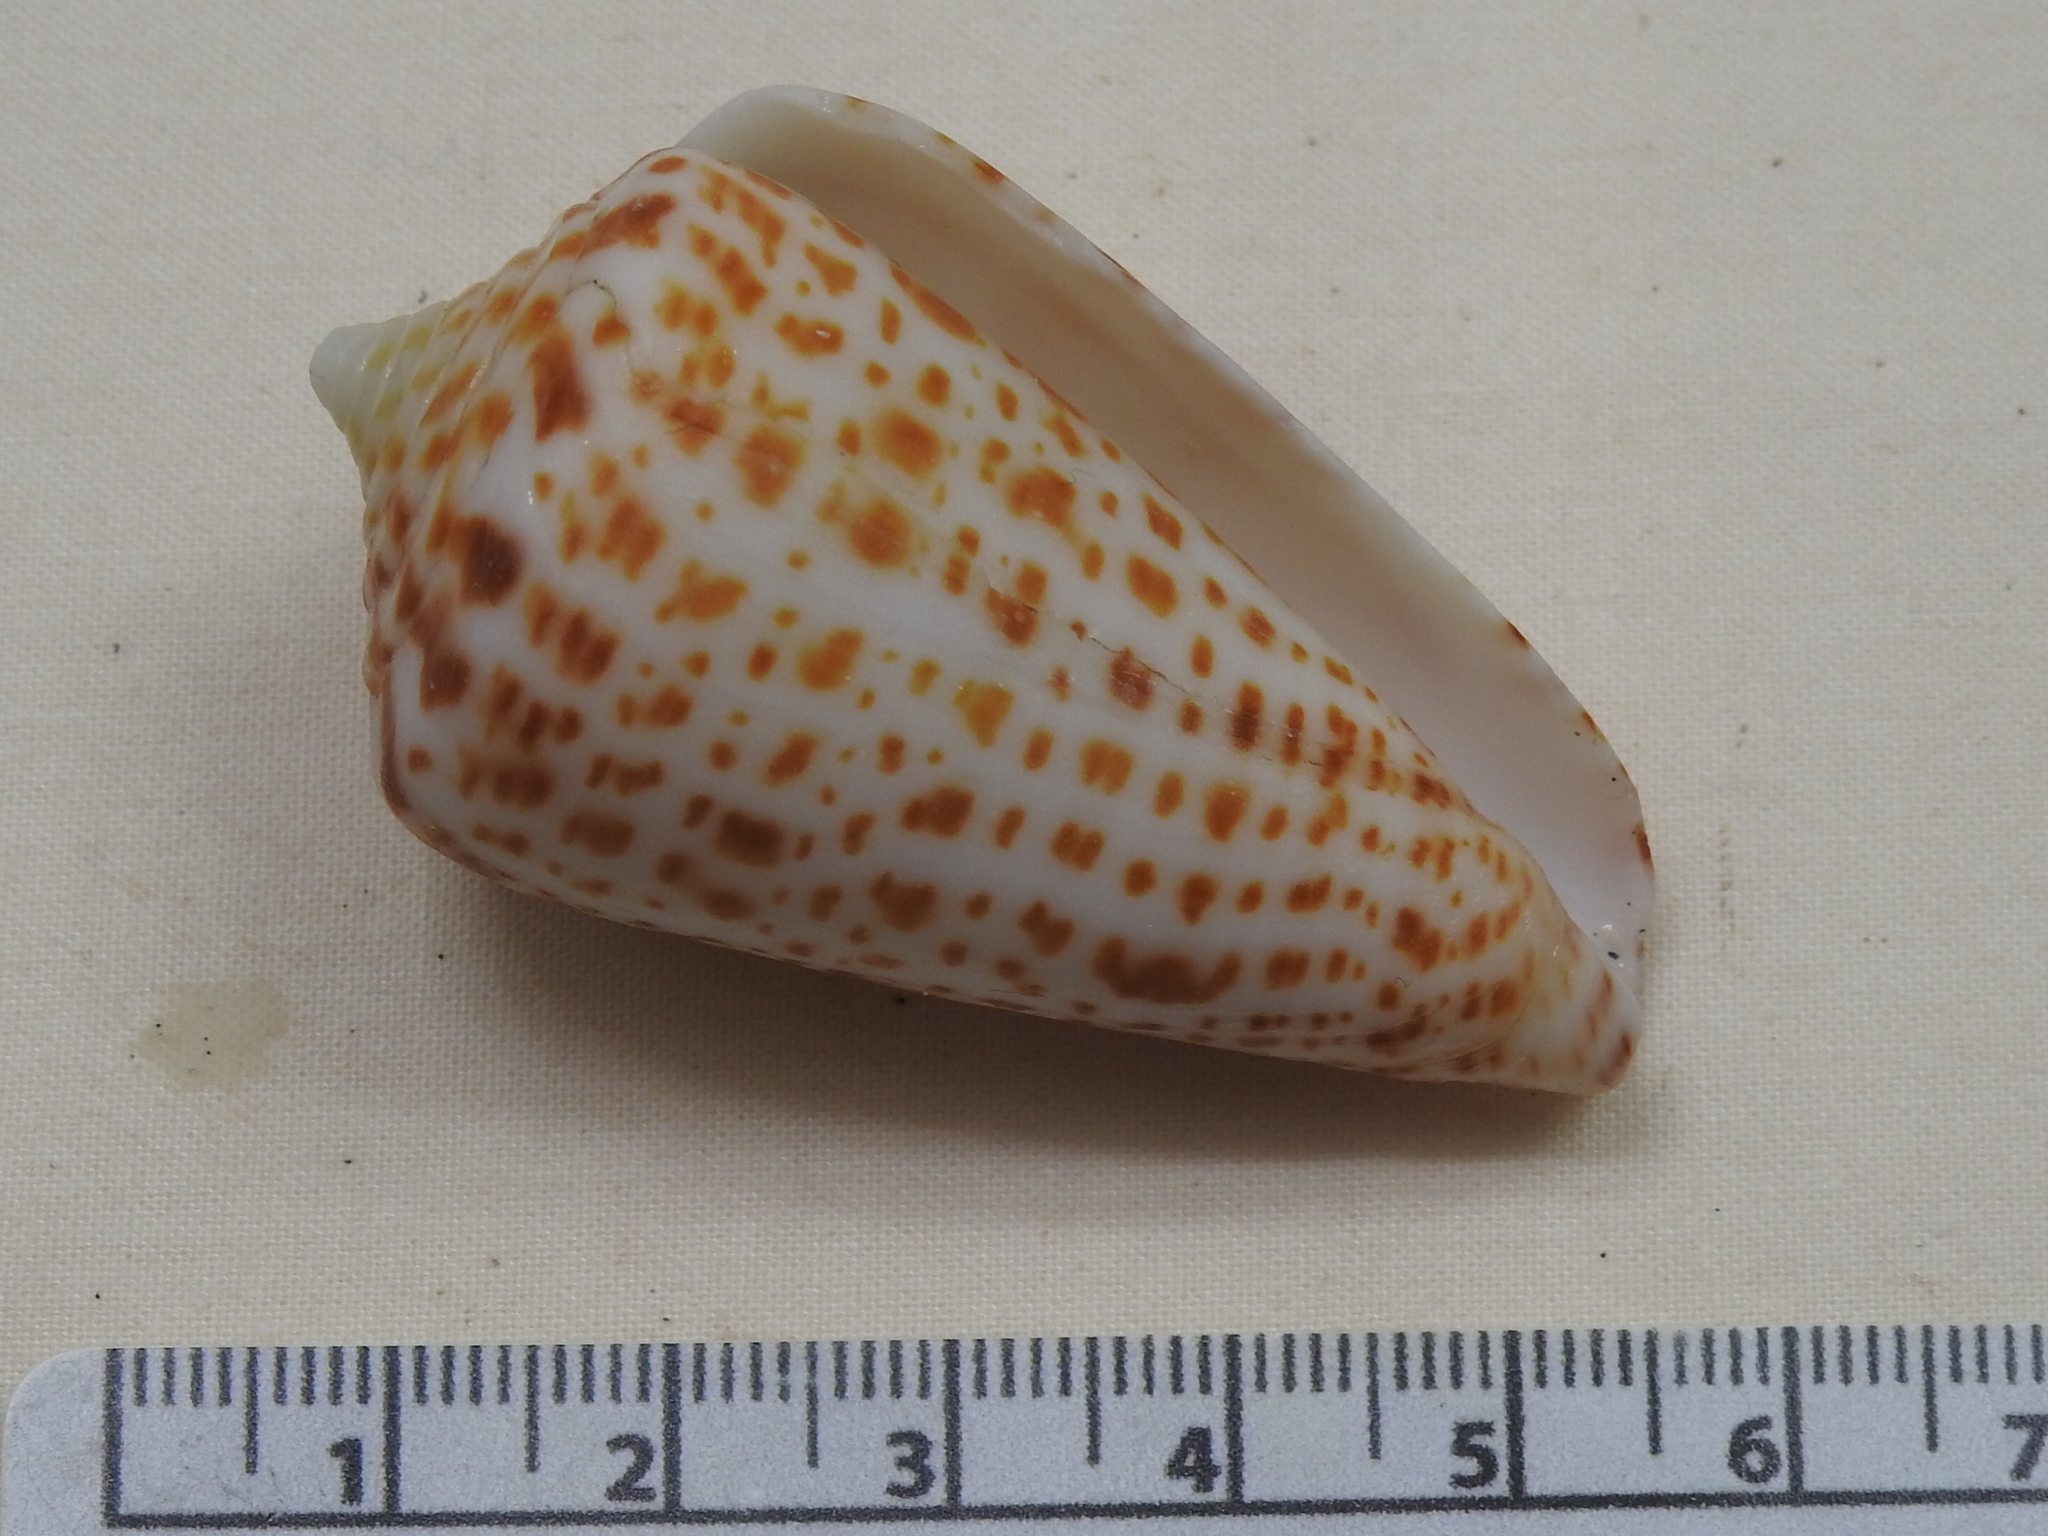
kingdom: Animalia
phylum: Mollusca
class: Gastropoda
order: Neogastropoda
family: Conidae
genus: Conus
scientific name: Conus spurius
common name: Alphabet cone
